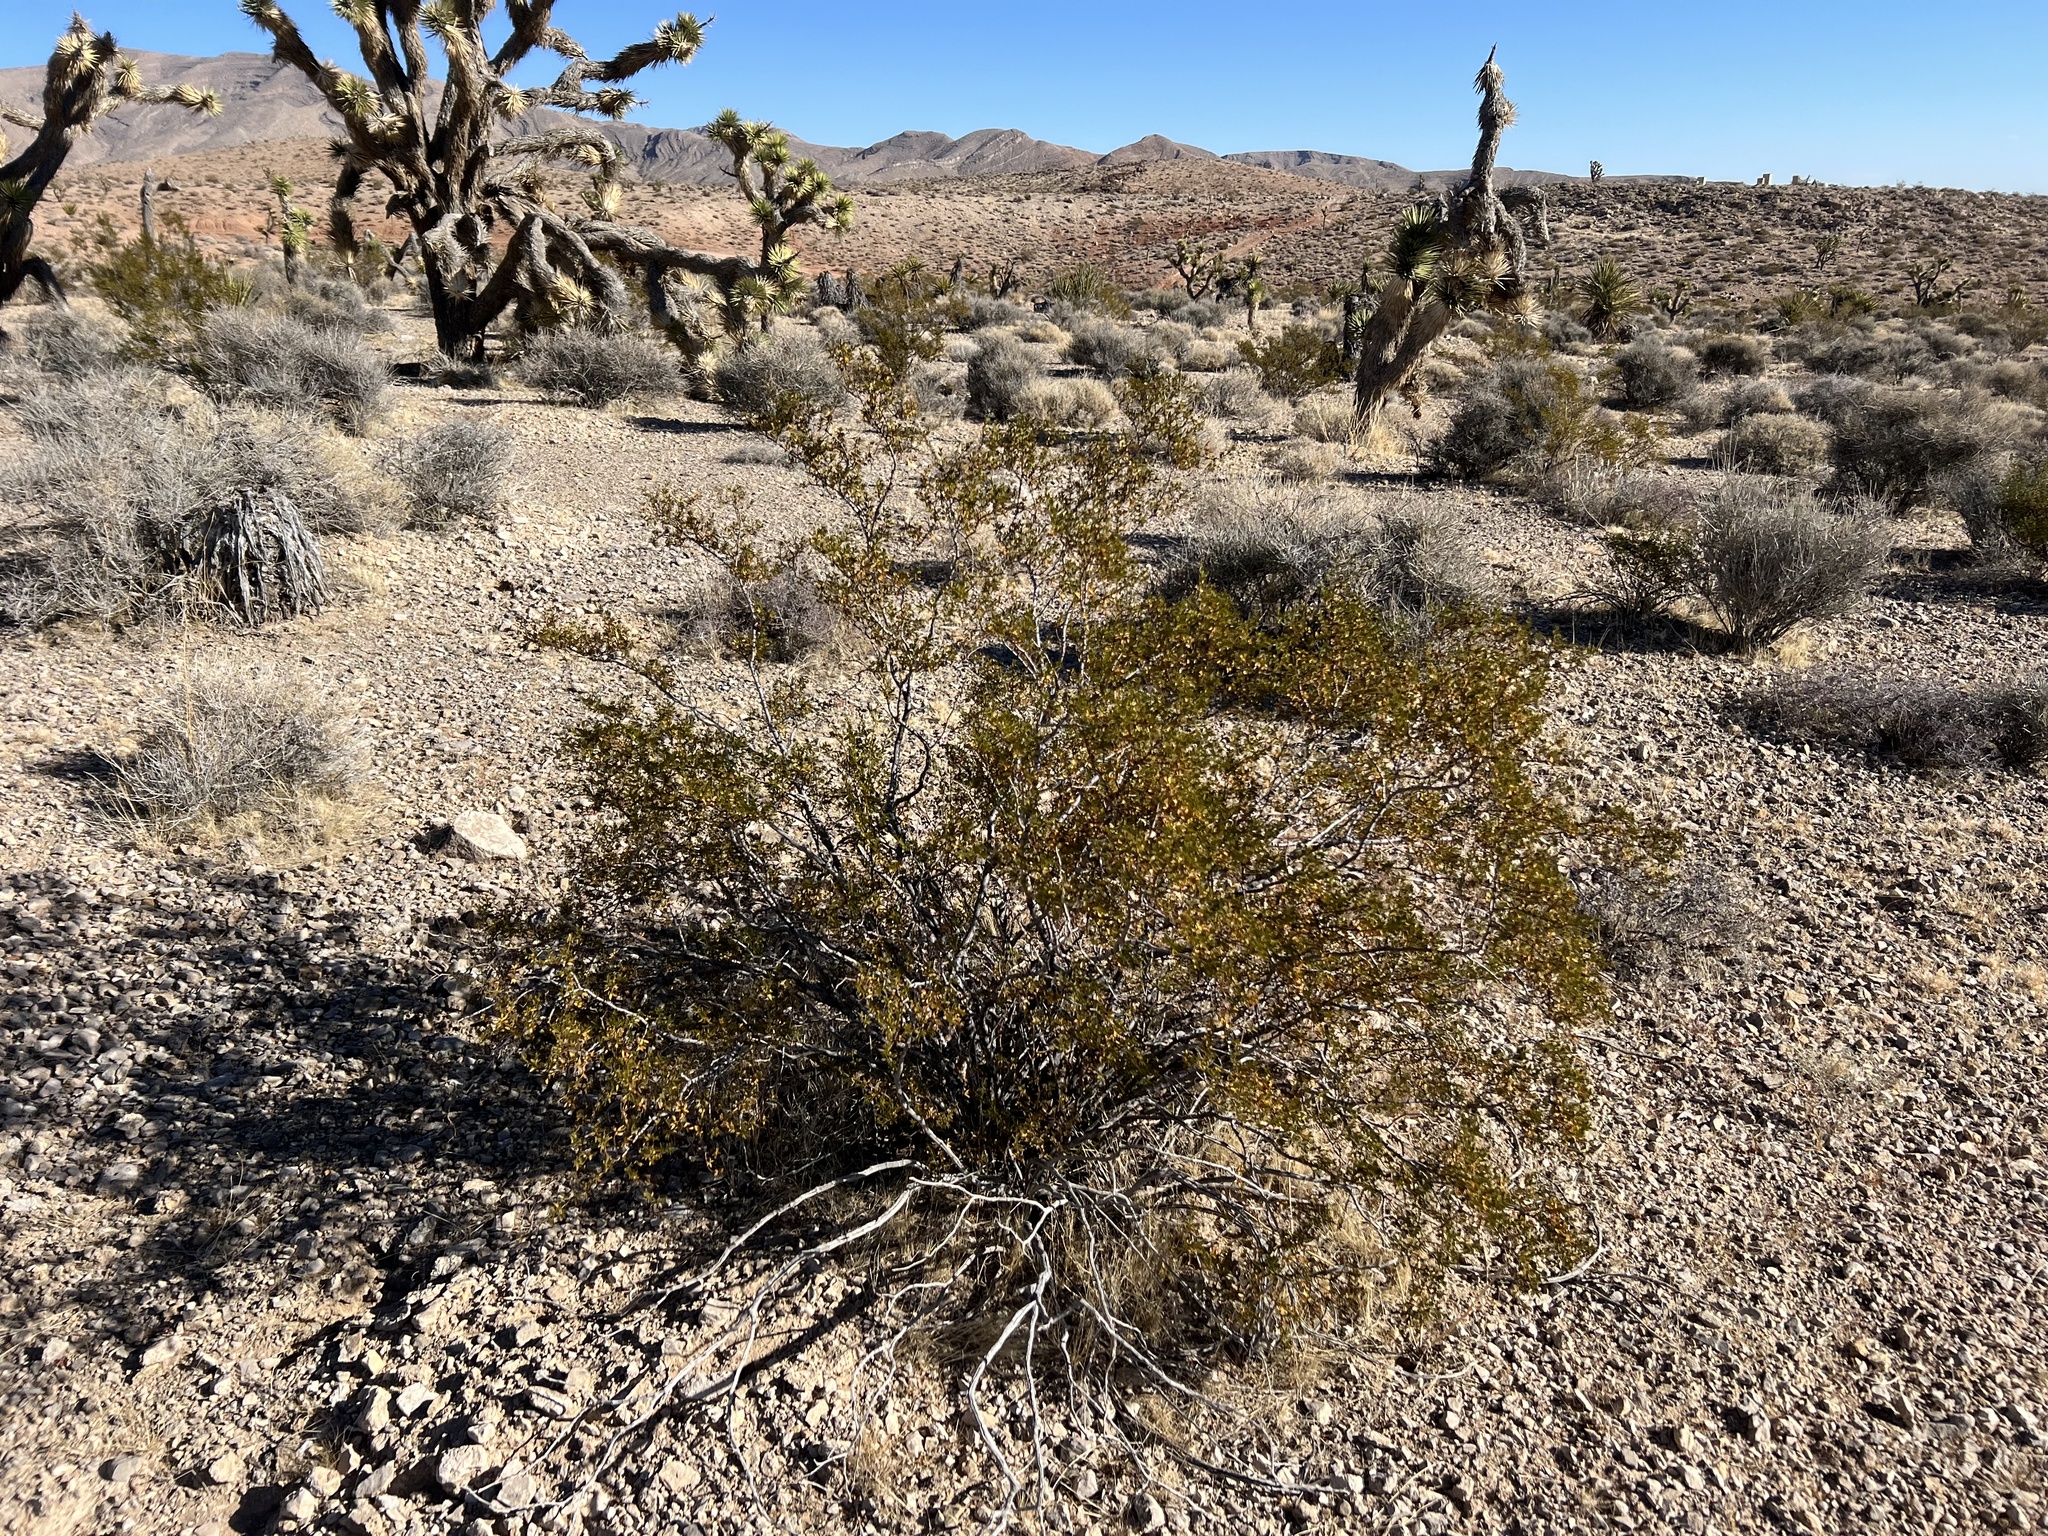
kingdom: Plantae
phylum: Tracheophyta
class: Magnoliopsida
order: Zygophyllales
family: Zygophyllaceae
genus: Larrea
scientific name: Larrea tridentata
